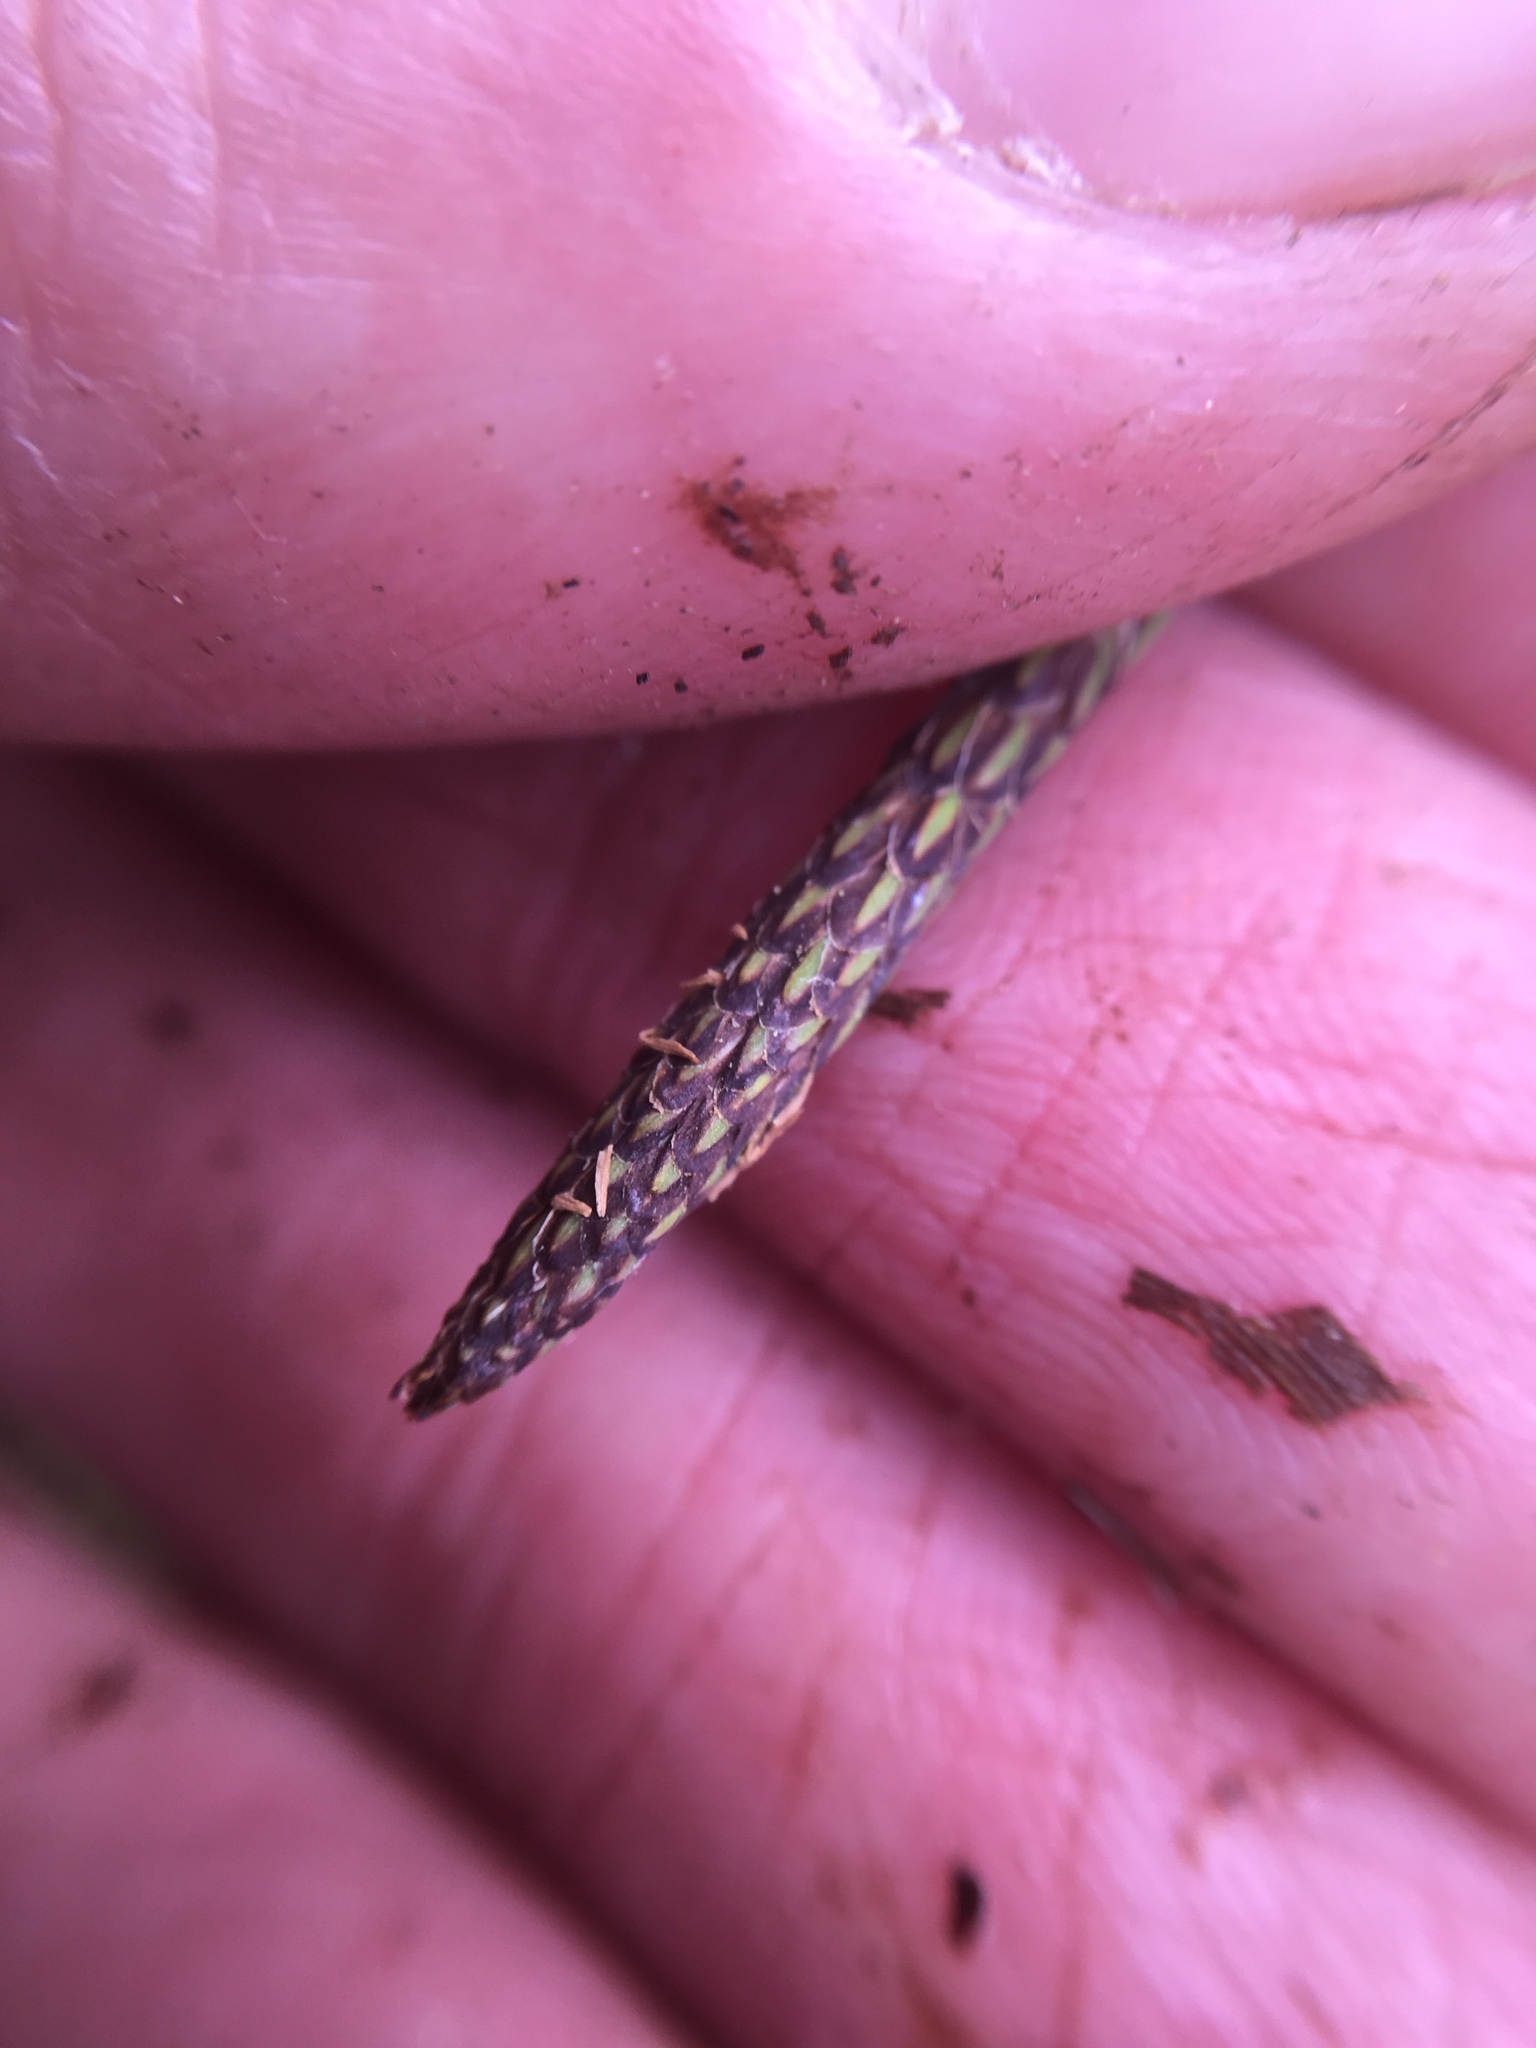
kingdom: Plantae
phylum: Tracheophyta
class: Liliopsida
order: Poales
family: Cyperaceae
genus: Carex
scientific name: Carex torta
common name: Twisted sedge
